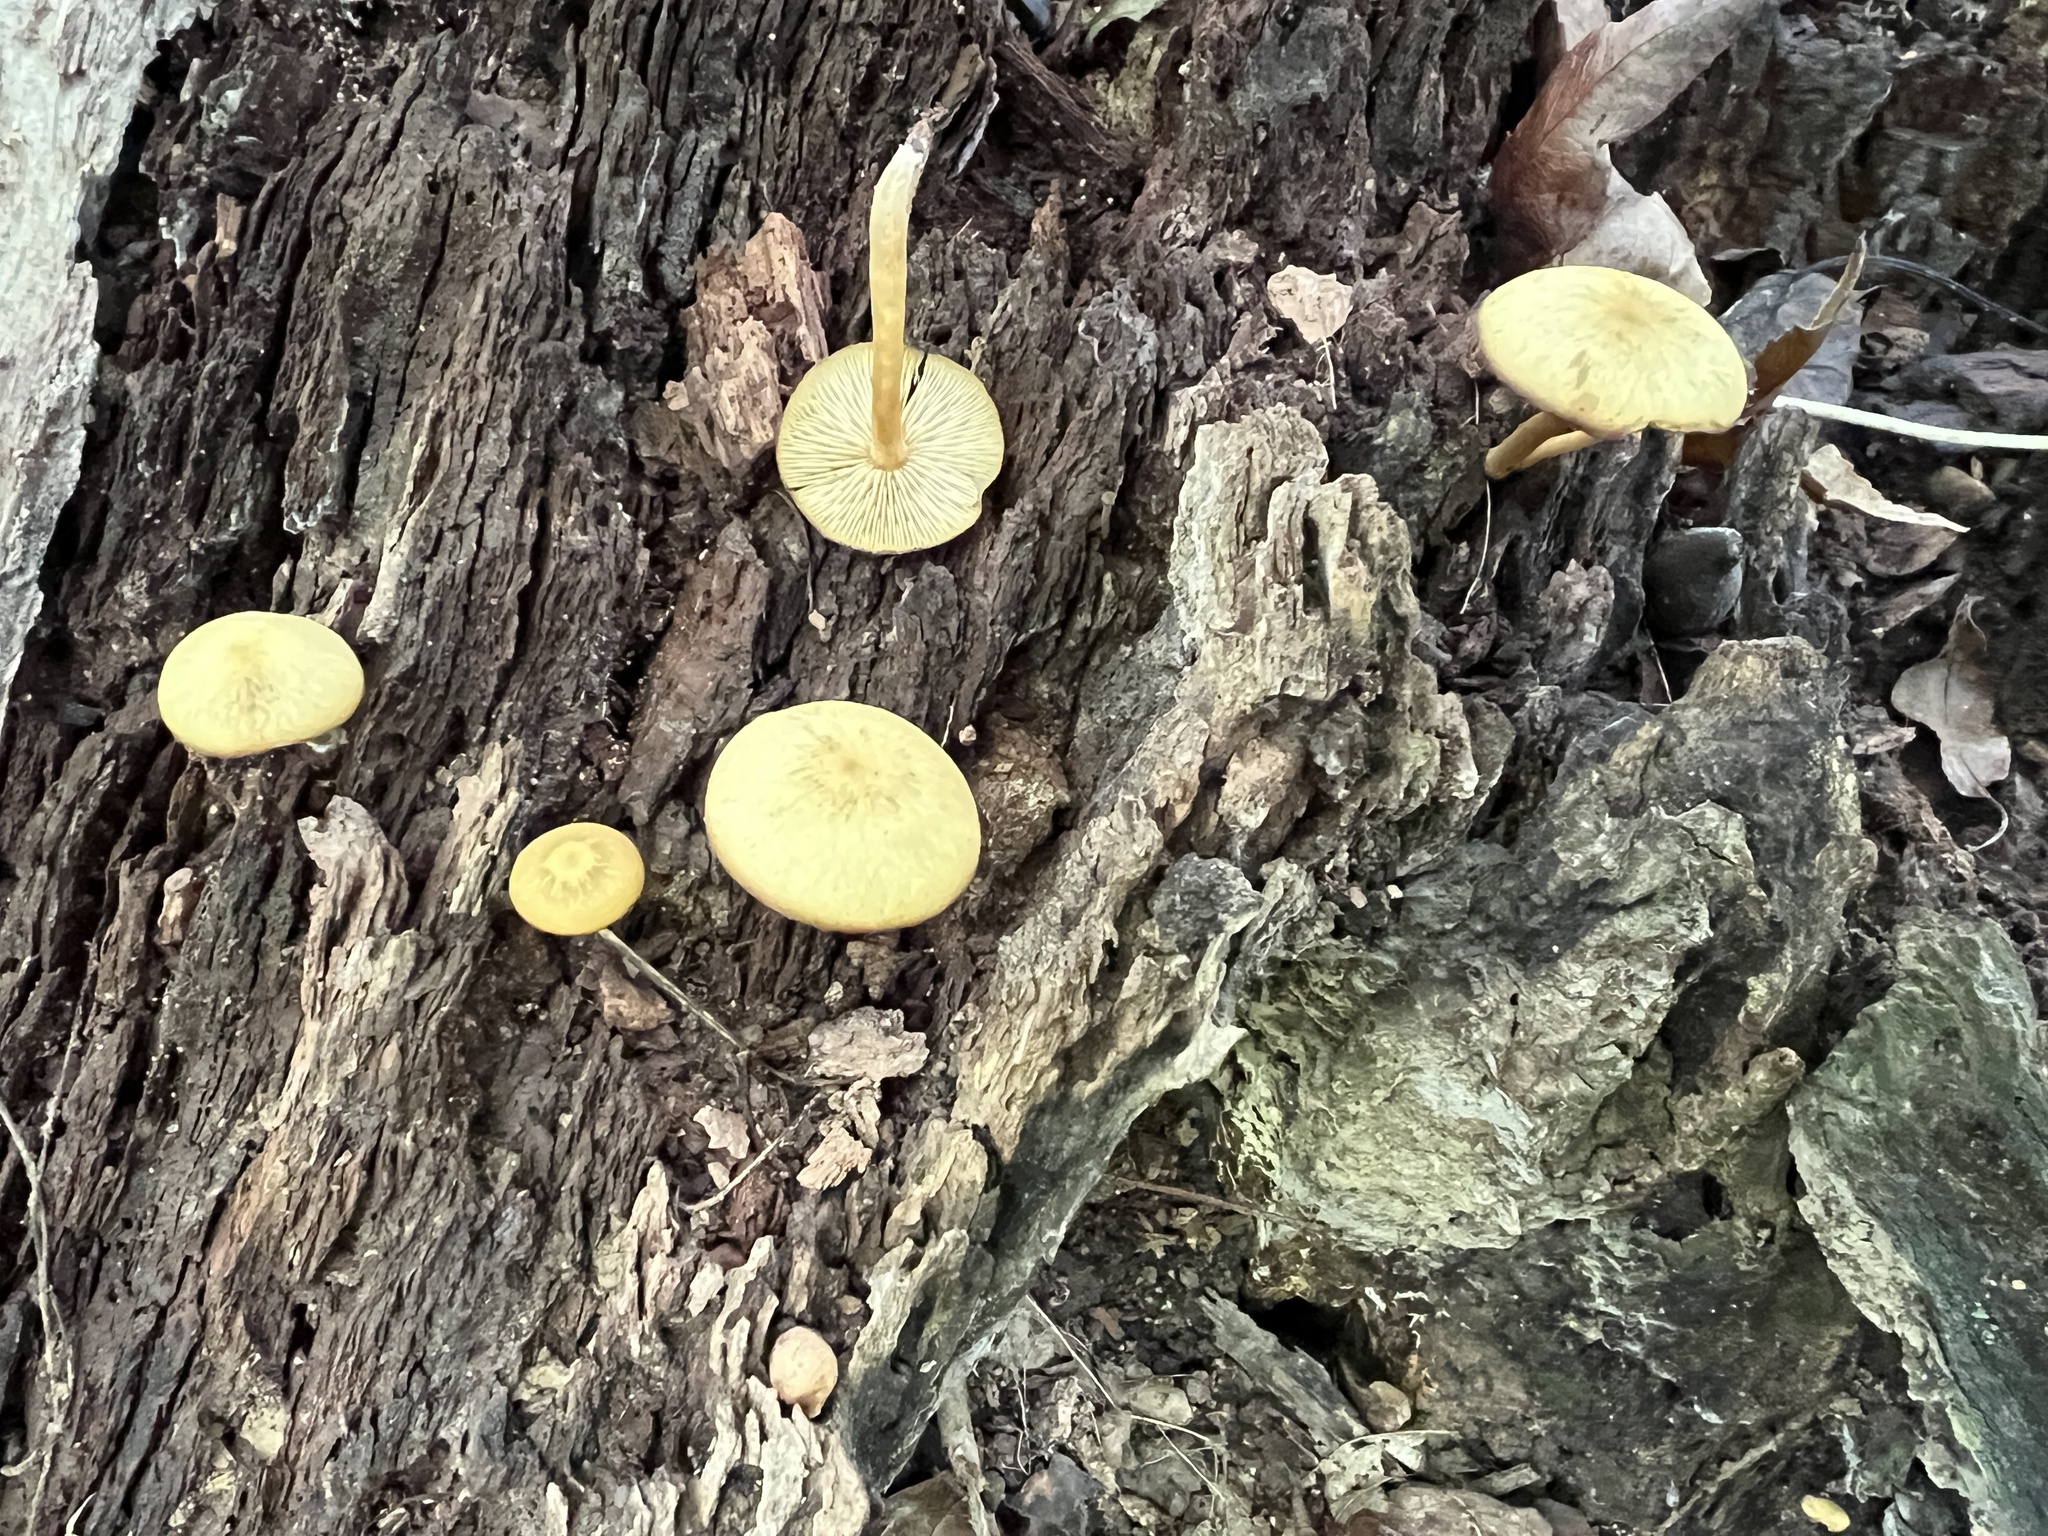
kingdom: Fungi
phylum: Basidiomycota
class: Agaricomycetes
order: Agaricales
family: Callistosporiaceae
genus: Callistosporium
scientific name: Callistosporium luteo-olivaceum
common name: Olive lute
